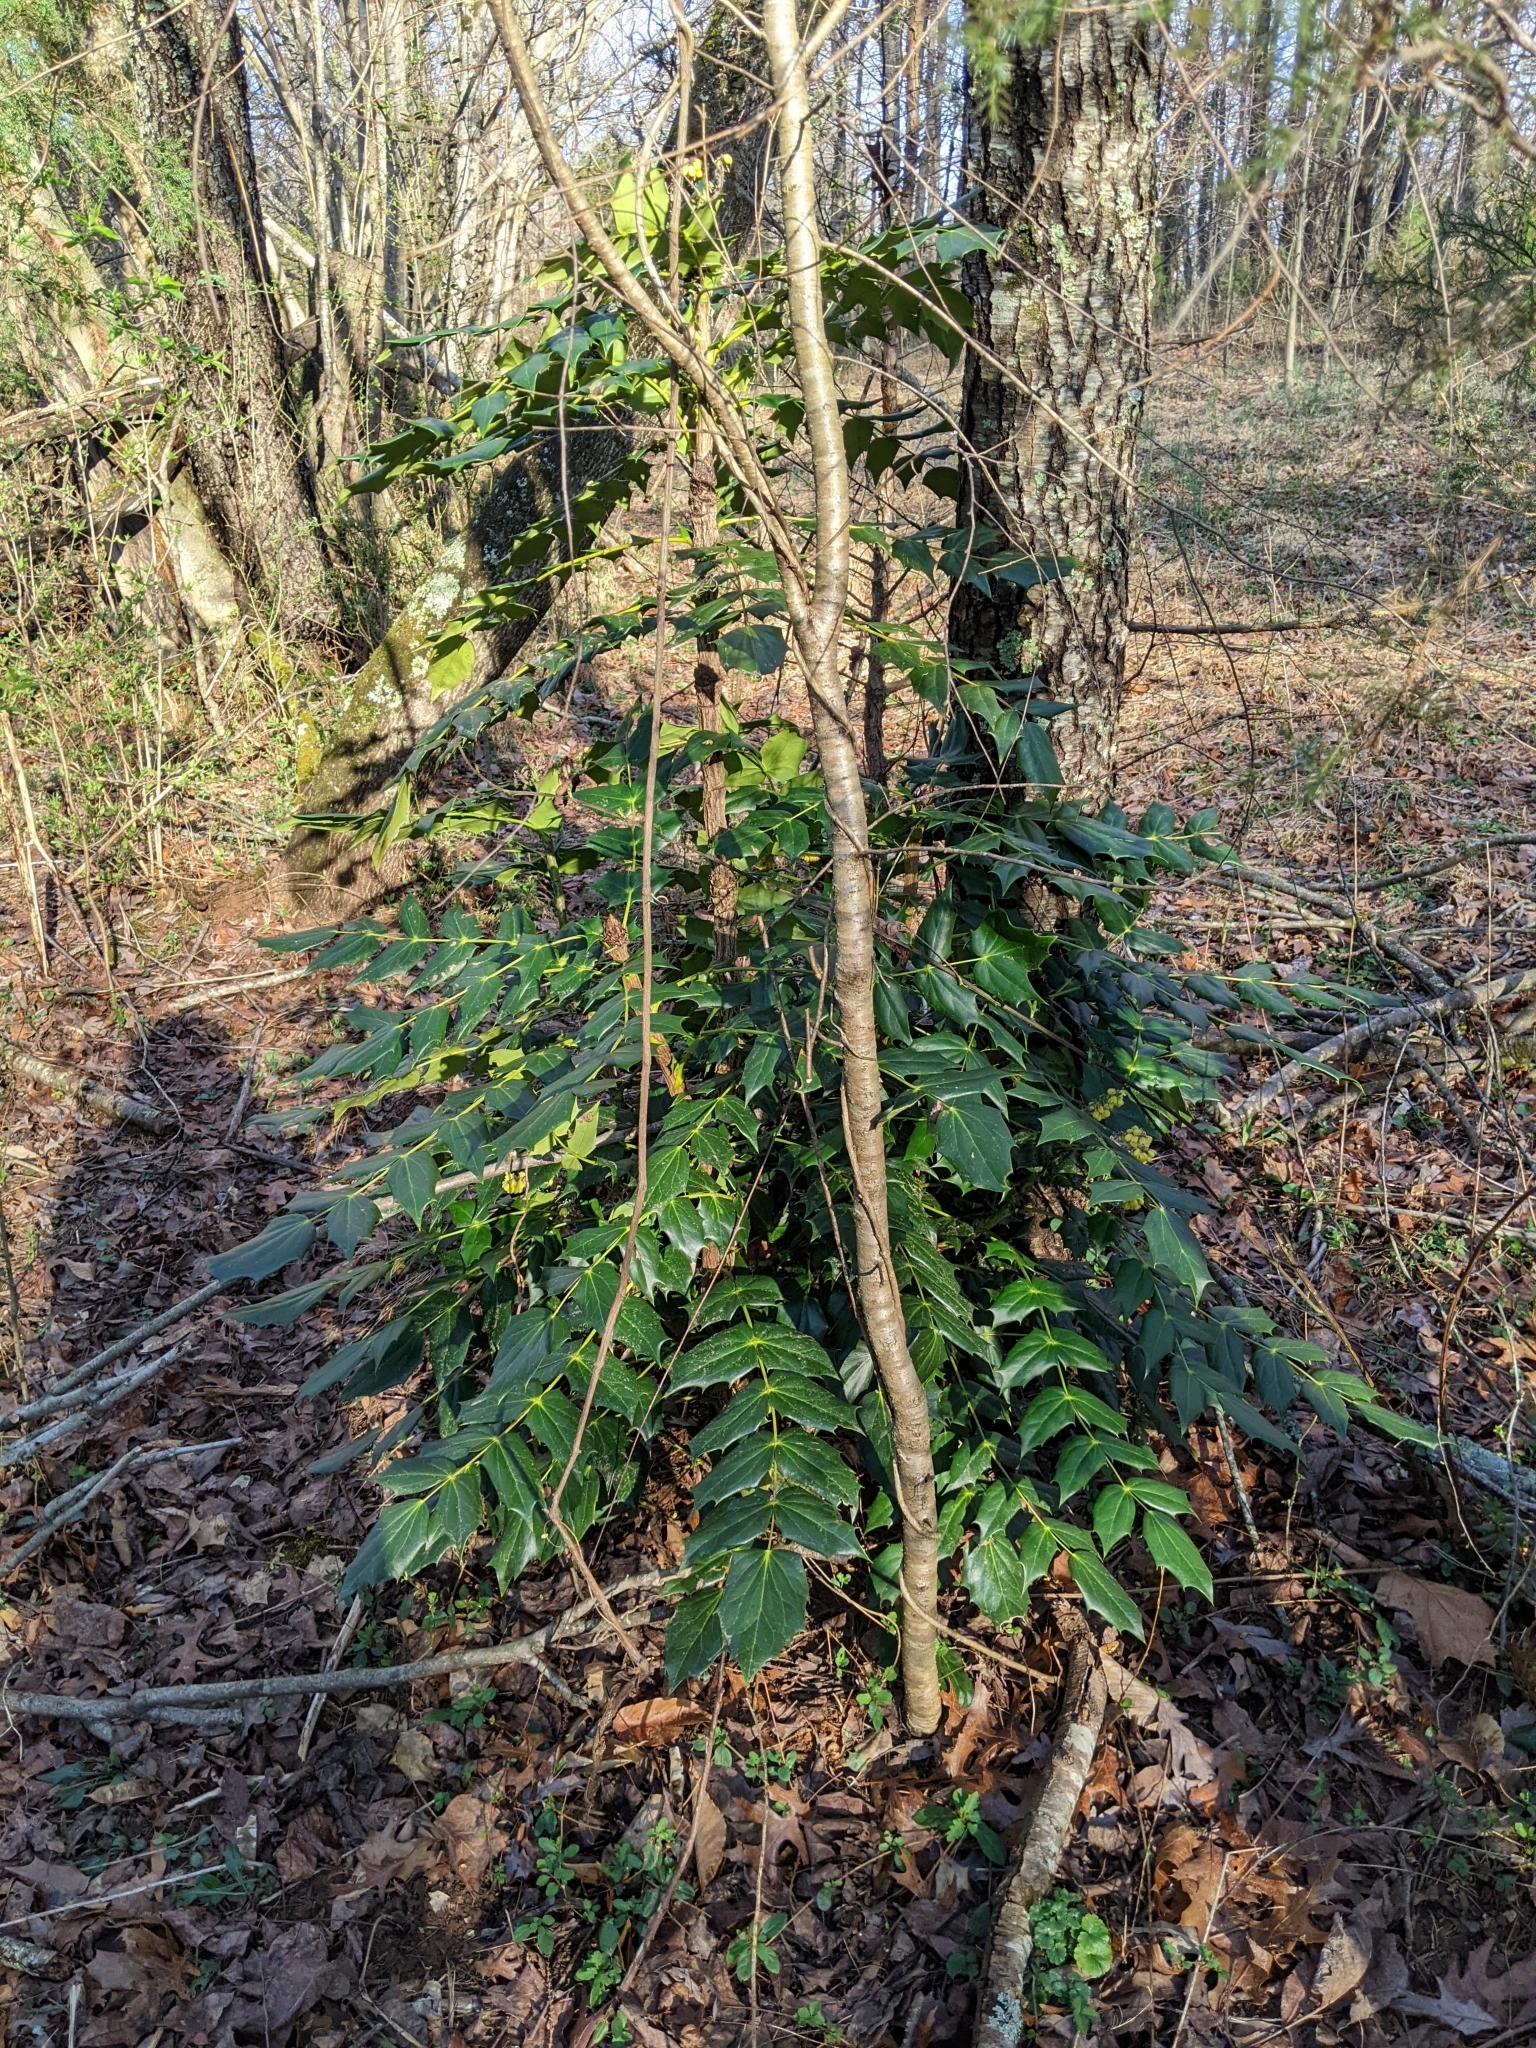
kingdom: Plantae
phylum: Tracheophyta
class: Magnoliopsida
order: Ranunculales
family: Berberidaceae
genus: Mahonia
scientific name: Mahonia bealei
